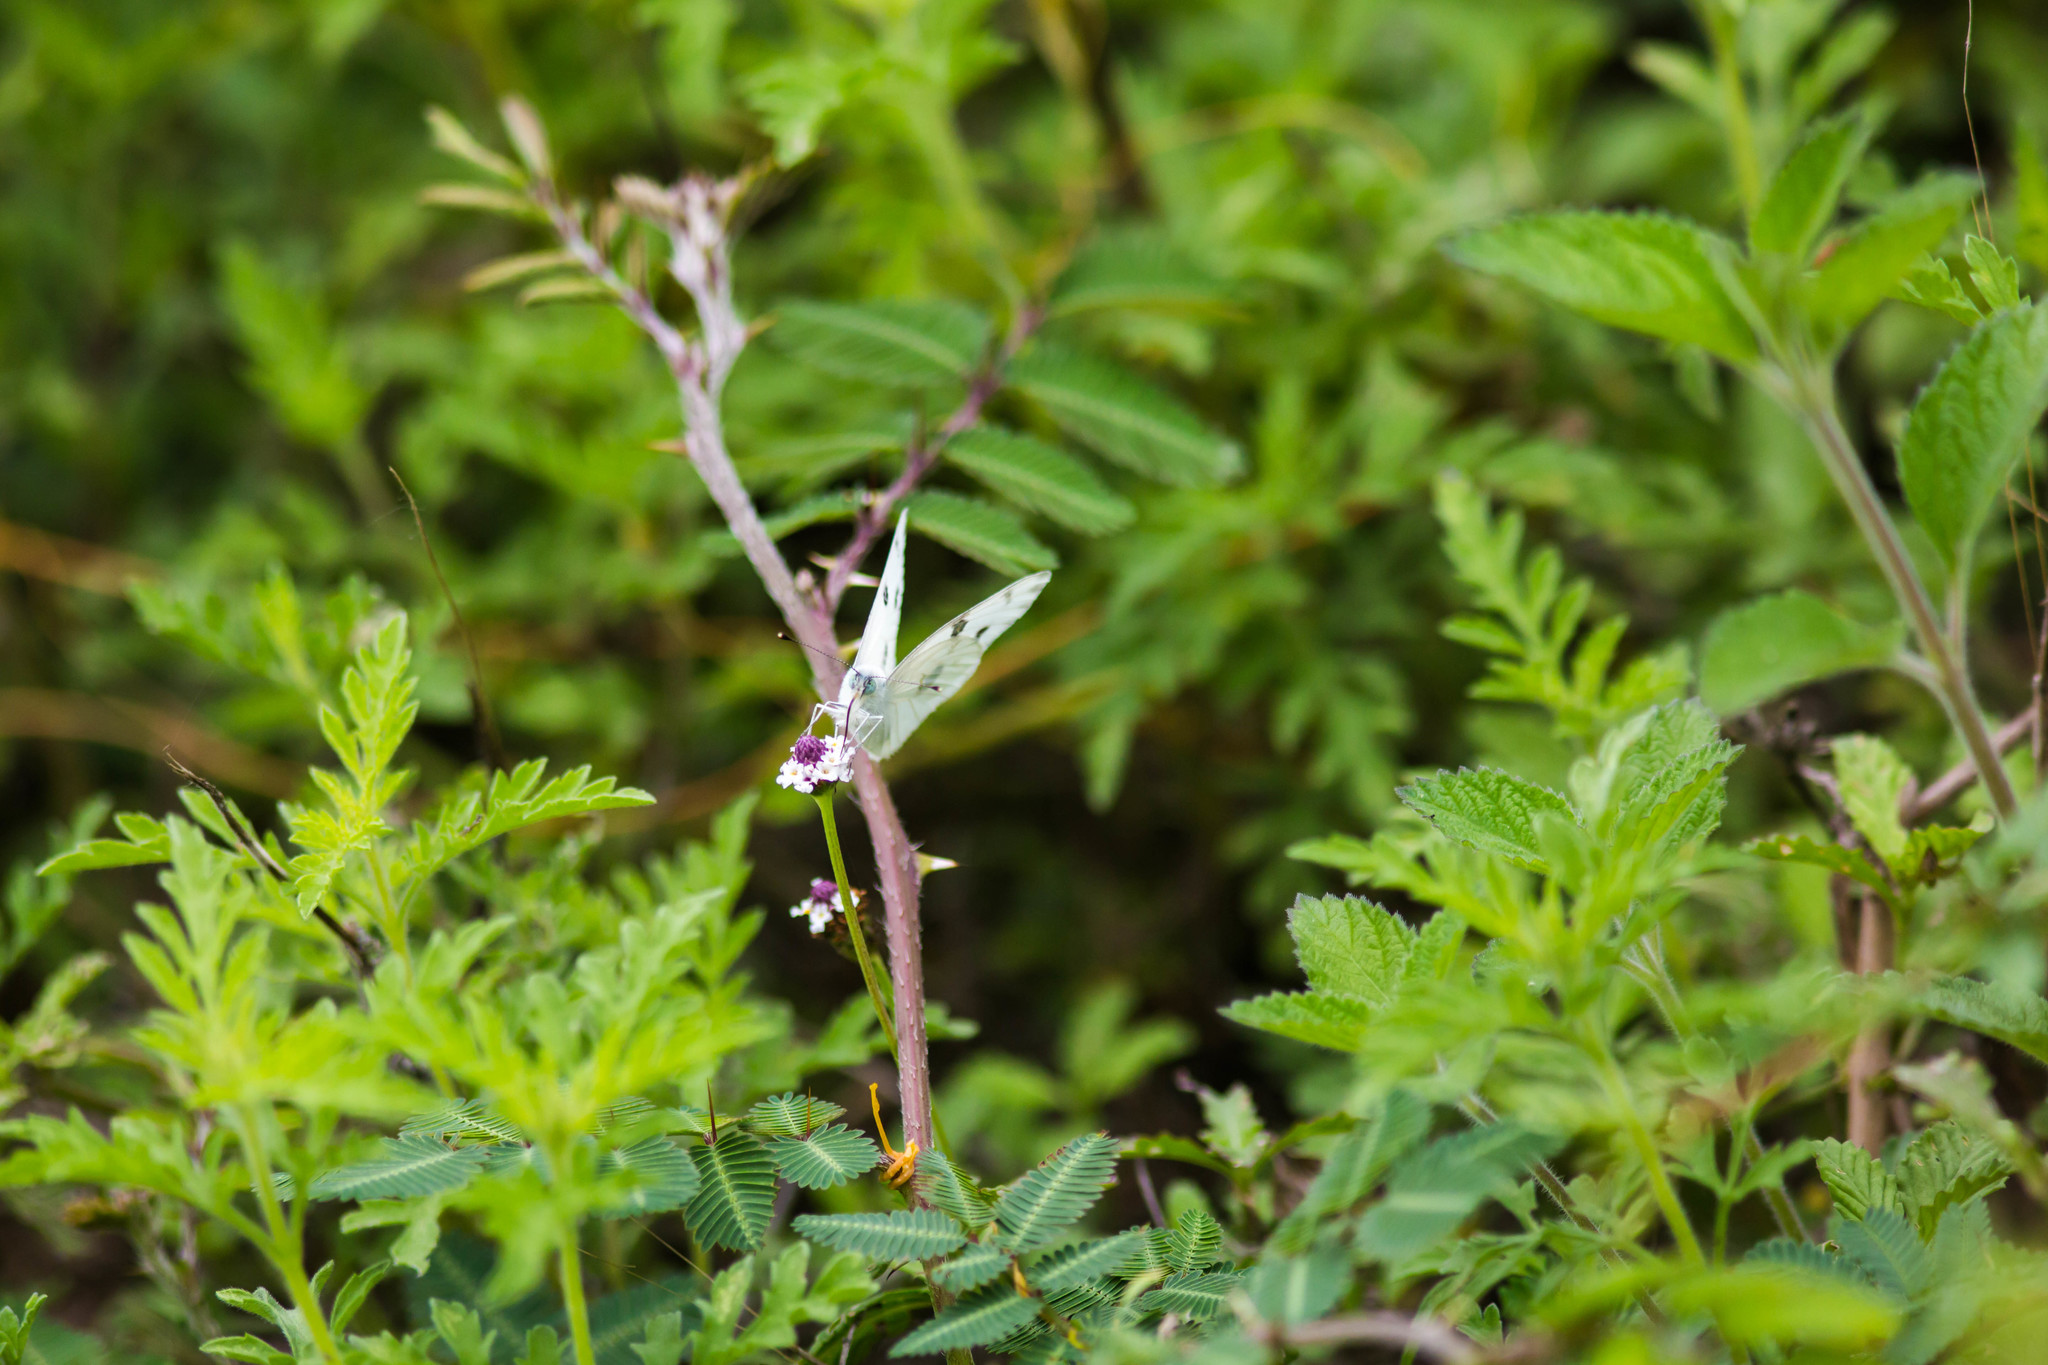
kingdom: Animalia
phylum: Arthropoda
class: Insecta
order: Lepidoptera
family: Pieridae
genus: Pontia
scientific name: Pontia protodice
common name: Checkered white
